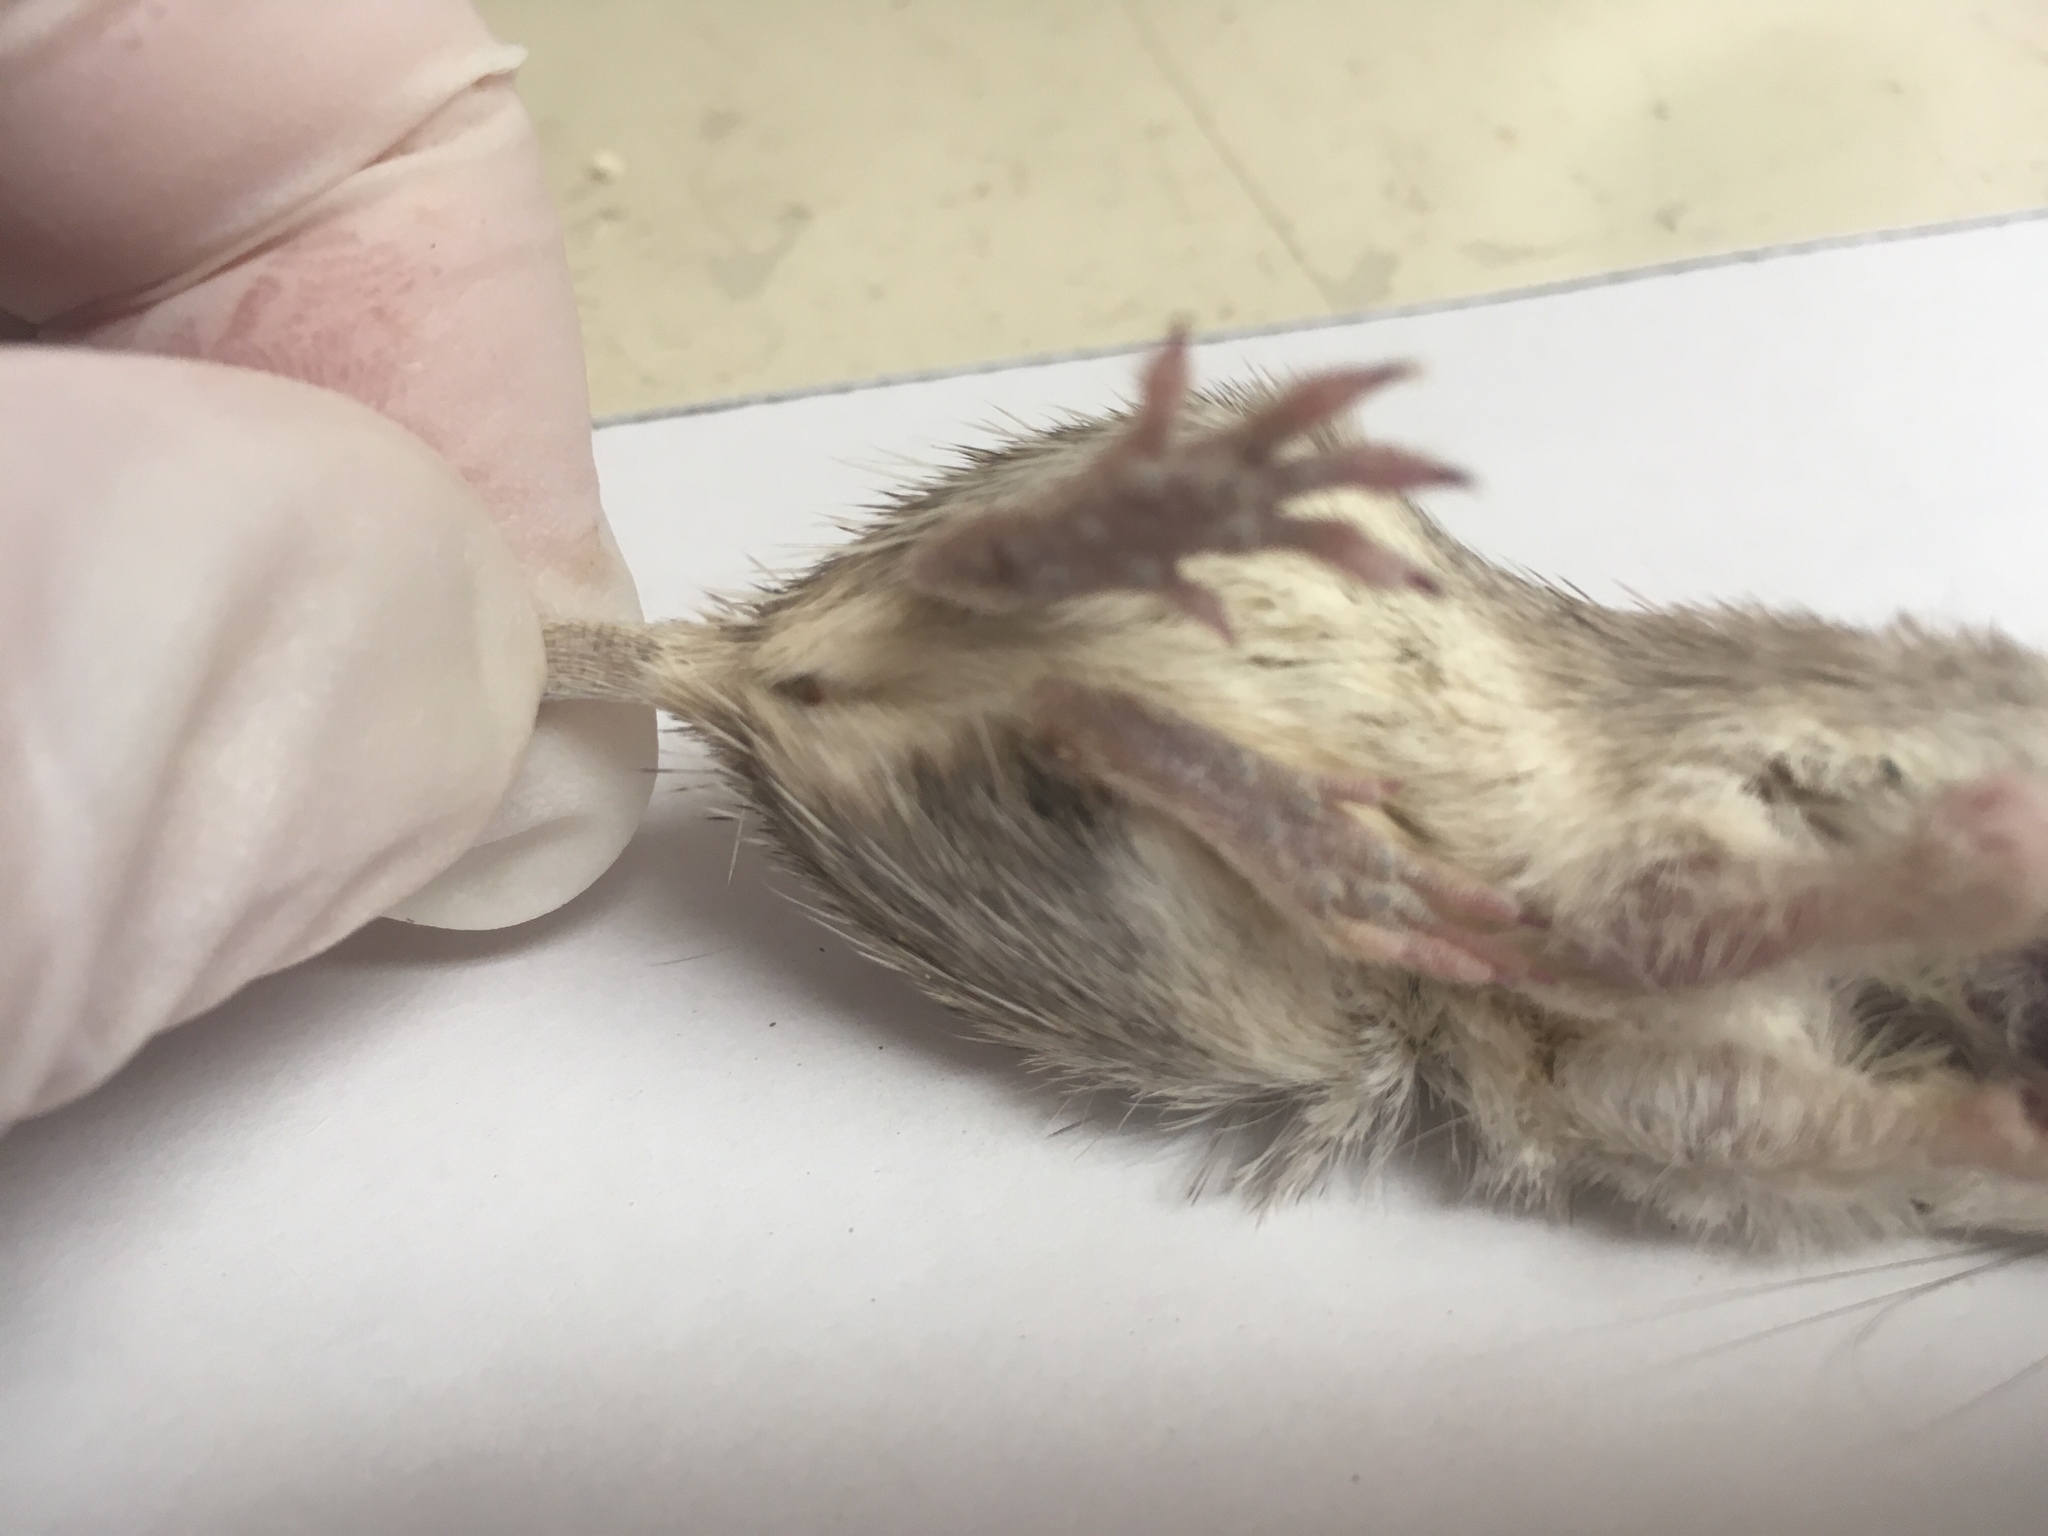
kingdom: Animalia
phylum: Chordata
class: Mammalia
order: Rodentia
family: Heteromyidae
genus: Chaetodipus
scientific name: Chaetodipus fallax
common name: San diego pocket mouse
